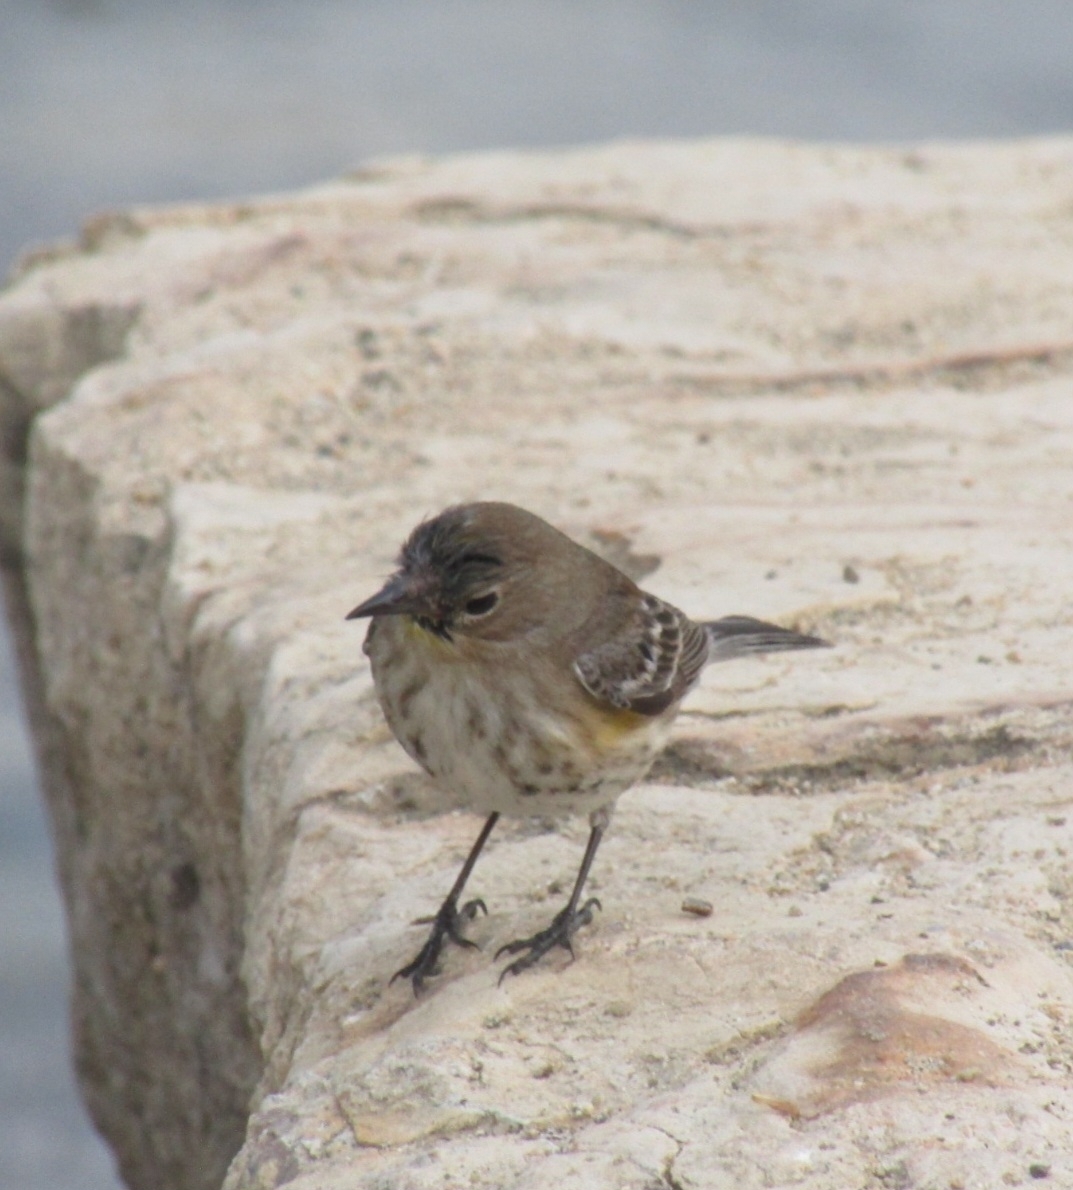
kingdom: Animalia
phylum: Chordata
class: Aves
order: Passeriformes
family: Parulidae
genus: Setophaga
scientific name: Setophaga coronata
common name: Myrtle warbler
